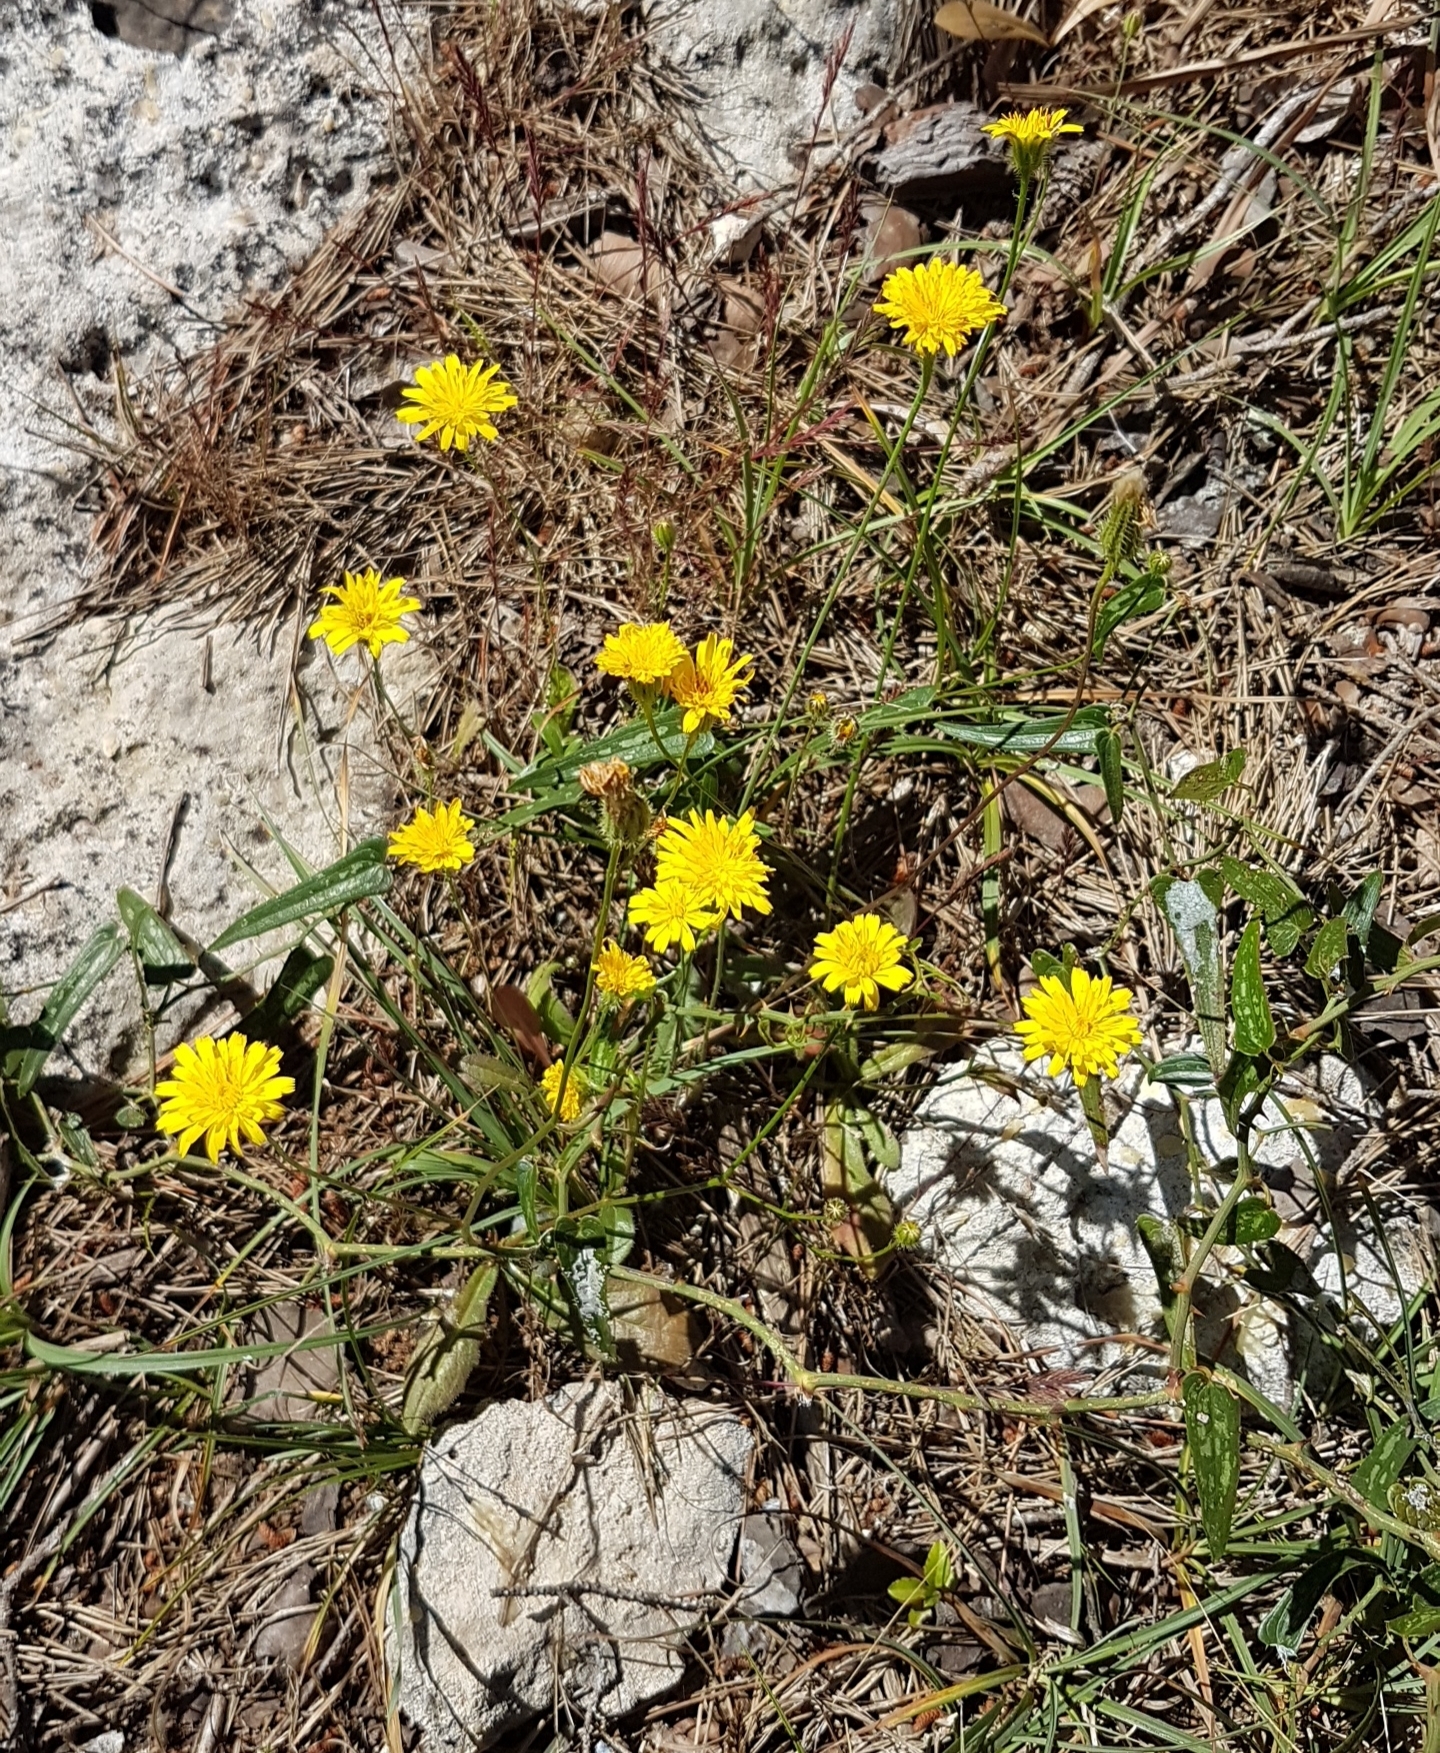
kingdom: Plantae
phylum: Tracheophyta
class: Magnoliopsida
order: Asterales
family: Asteraceae
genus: Achyrophorus
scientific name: Achyrophorus valdesii
